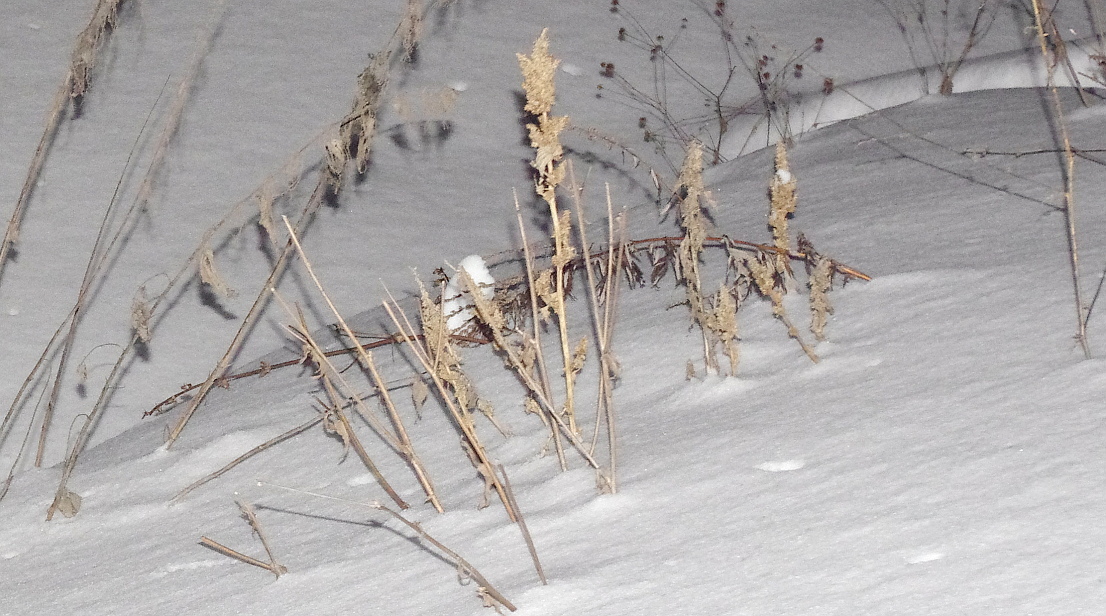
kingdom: Plantae
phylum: Tracheophyta
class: Magnoliopsida
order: Asterales
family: Asteraceae
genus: Bidens
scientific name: Bidens frondosa
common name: Beggarticks
